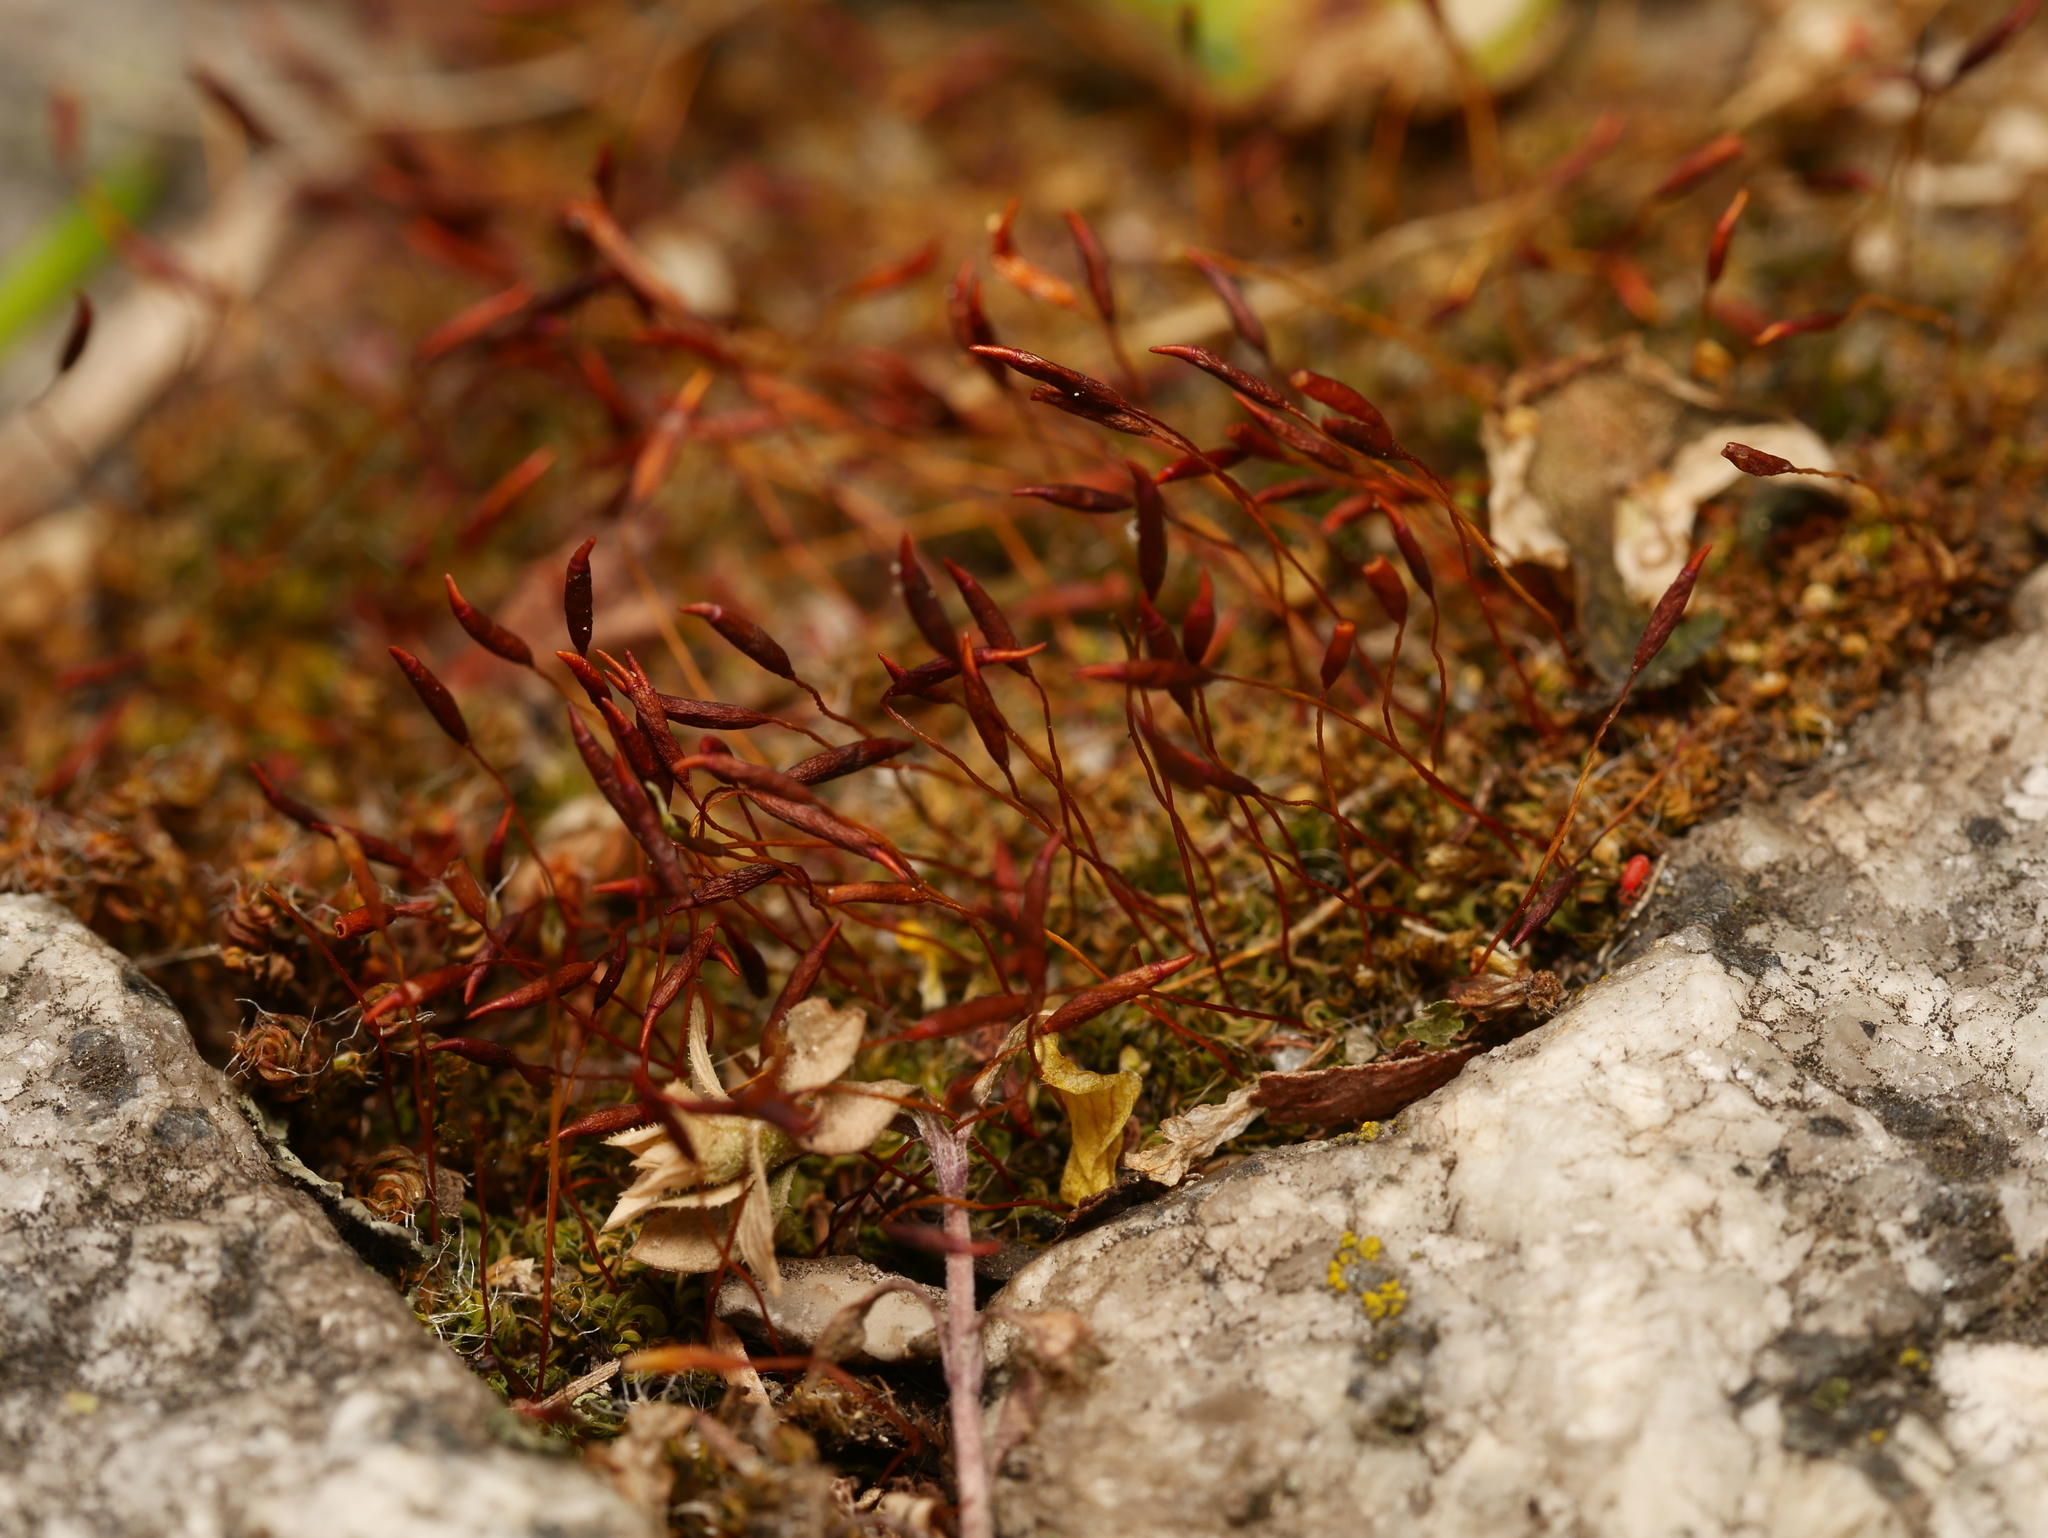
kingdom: Plantae
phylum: Bryophyta
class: Bryopsida
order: Pottiales
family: Pottiaceae
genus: Tortula
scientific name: Tortula muralis
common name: Wall screw-moss
